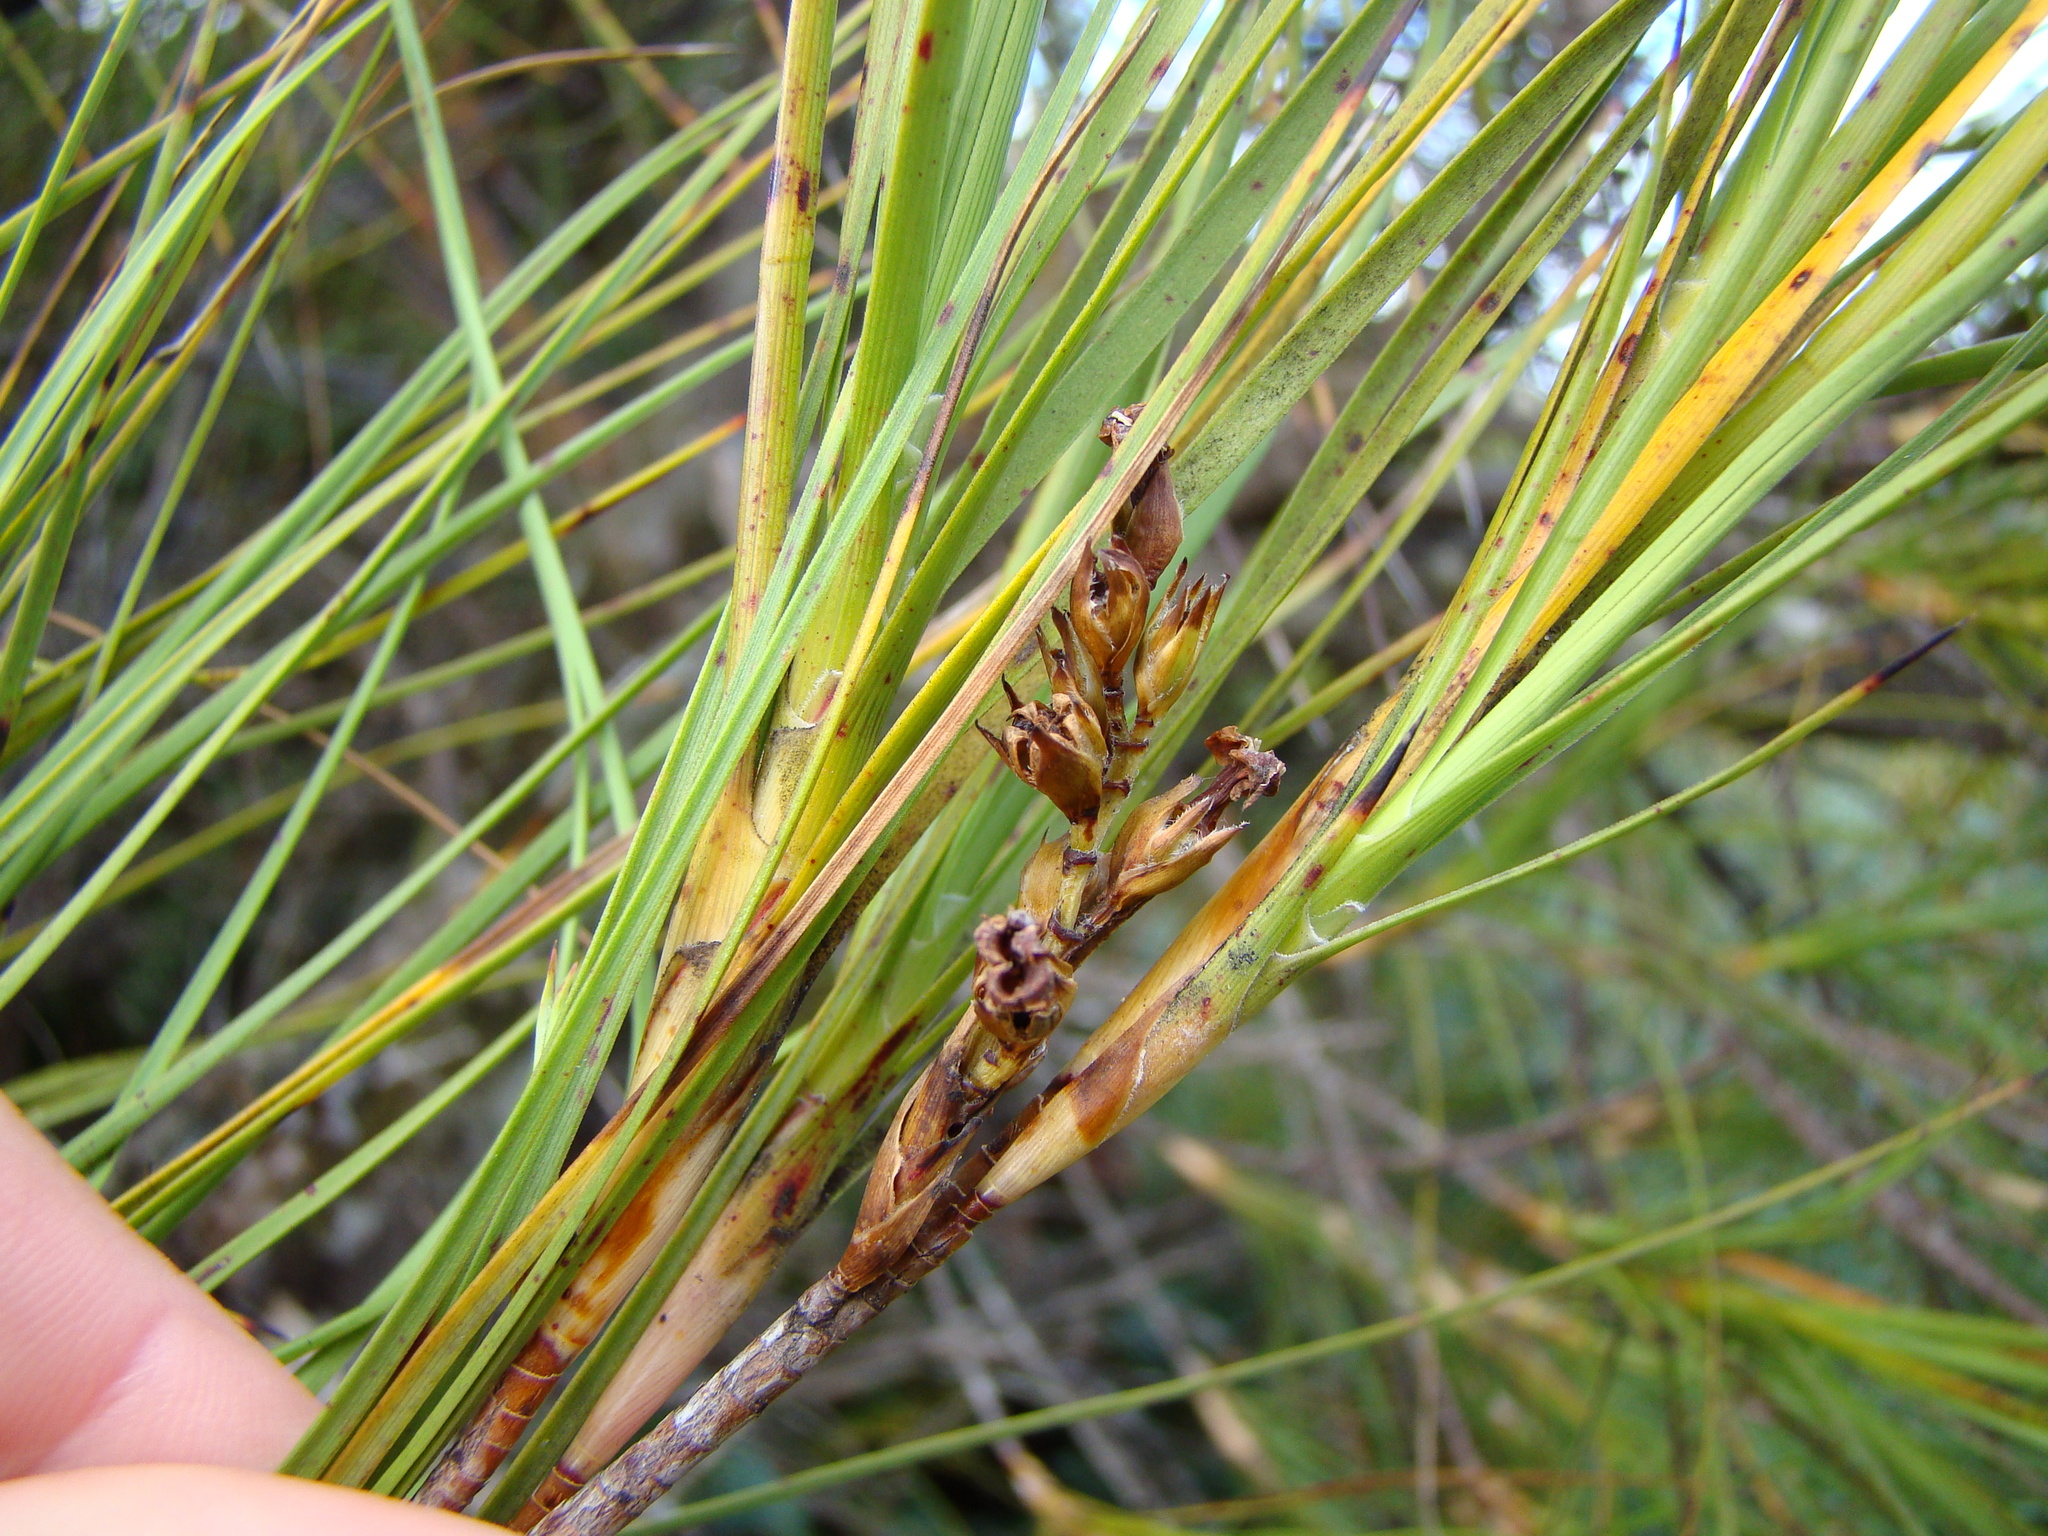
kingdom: Plantae
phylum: Tracheophyta
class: Magnoliopsida
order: Ericales
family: Ericaceae
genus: Dracophyllum
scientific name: Dracophyllum longifolium
